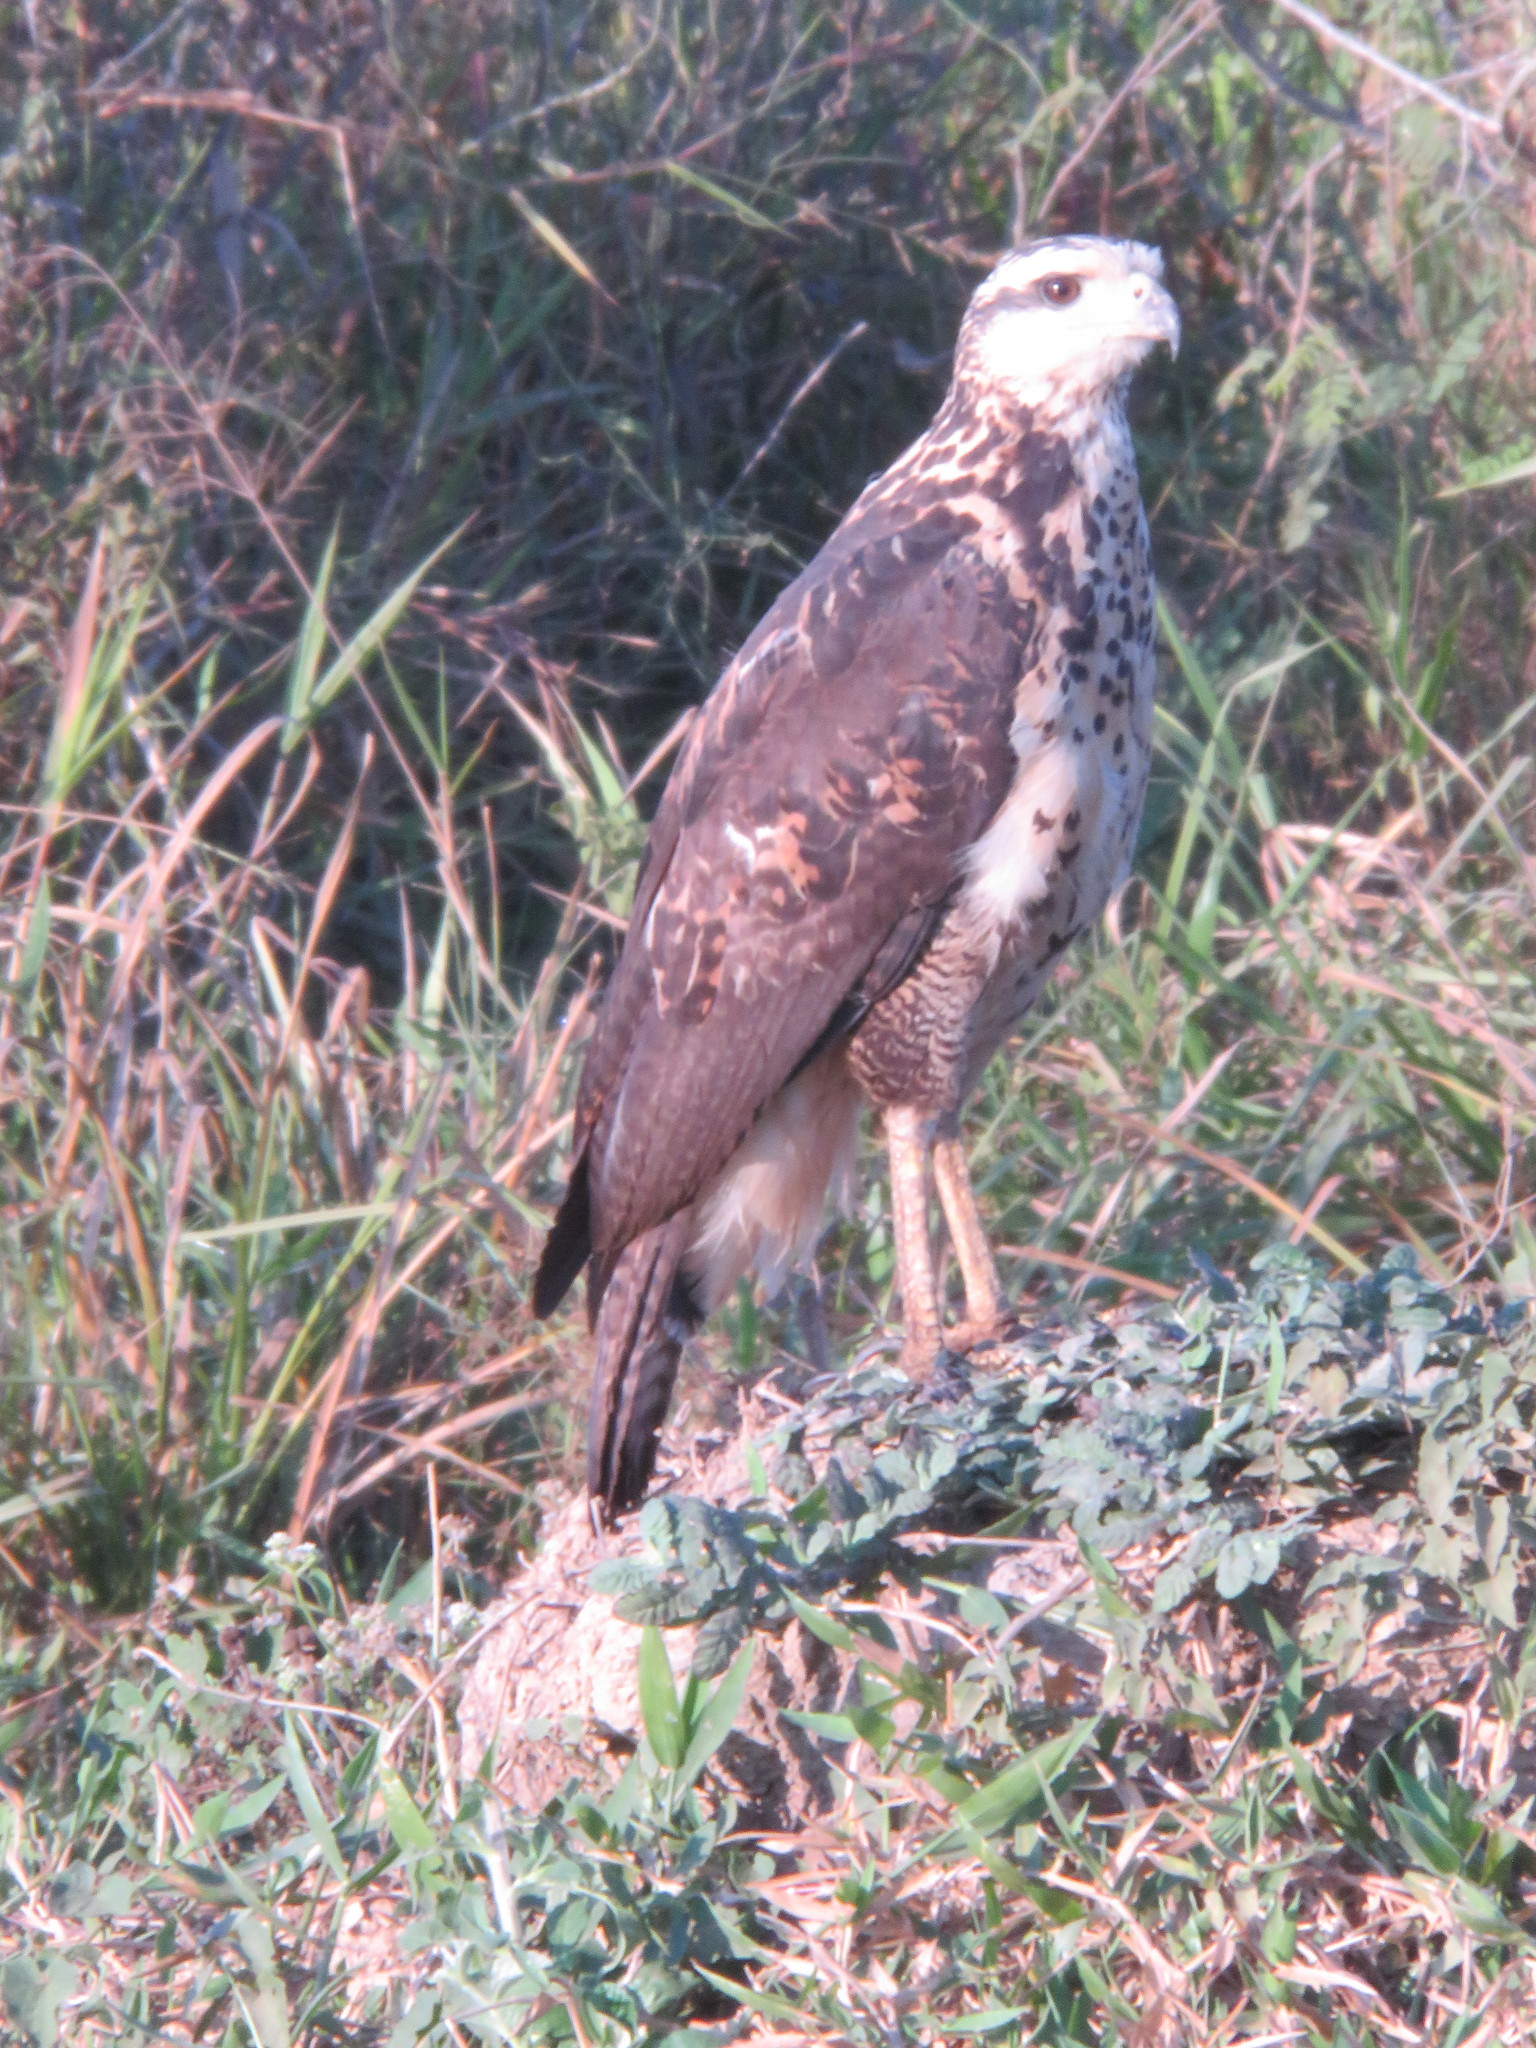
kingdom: Animalia
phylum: Chordata
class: Aves
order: Accipitriformes
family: Accipitridae
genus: Buteogallus
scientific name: Buteogallus urubitinga
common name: Great black hawk
